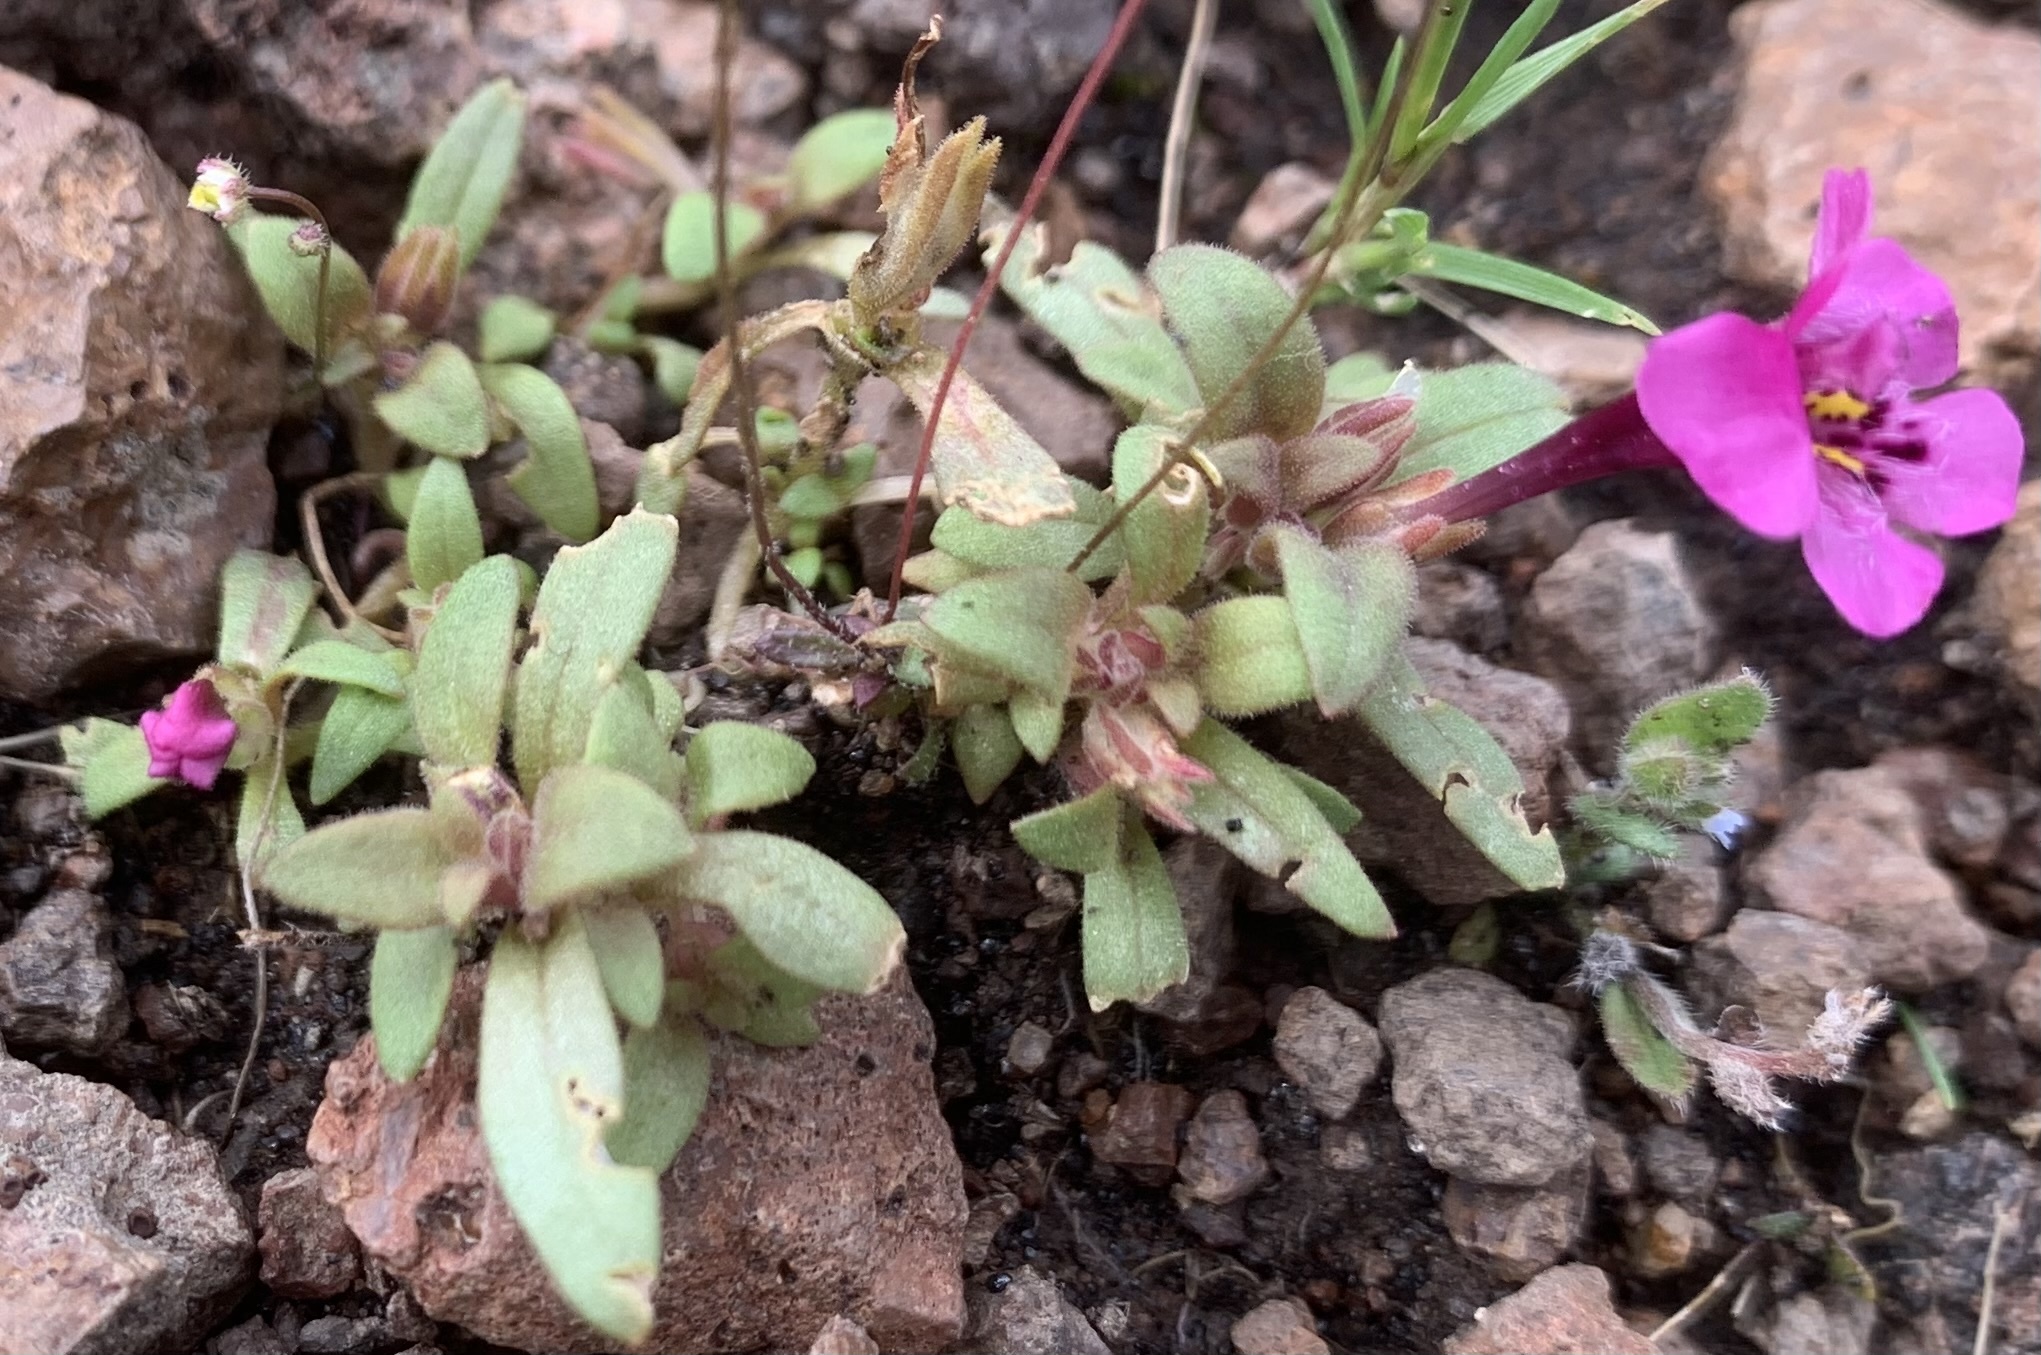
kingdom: Plantae
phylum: Tracheophyta
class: Magnoliopsida
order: Lamiales
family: Phrymaceae
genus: Diplacus
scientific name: Diplacus nanus
